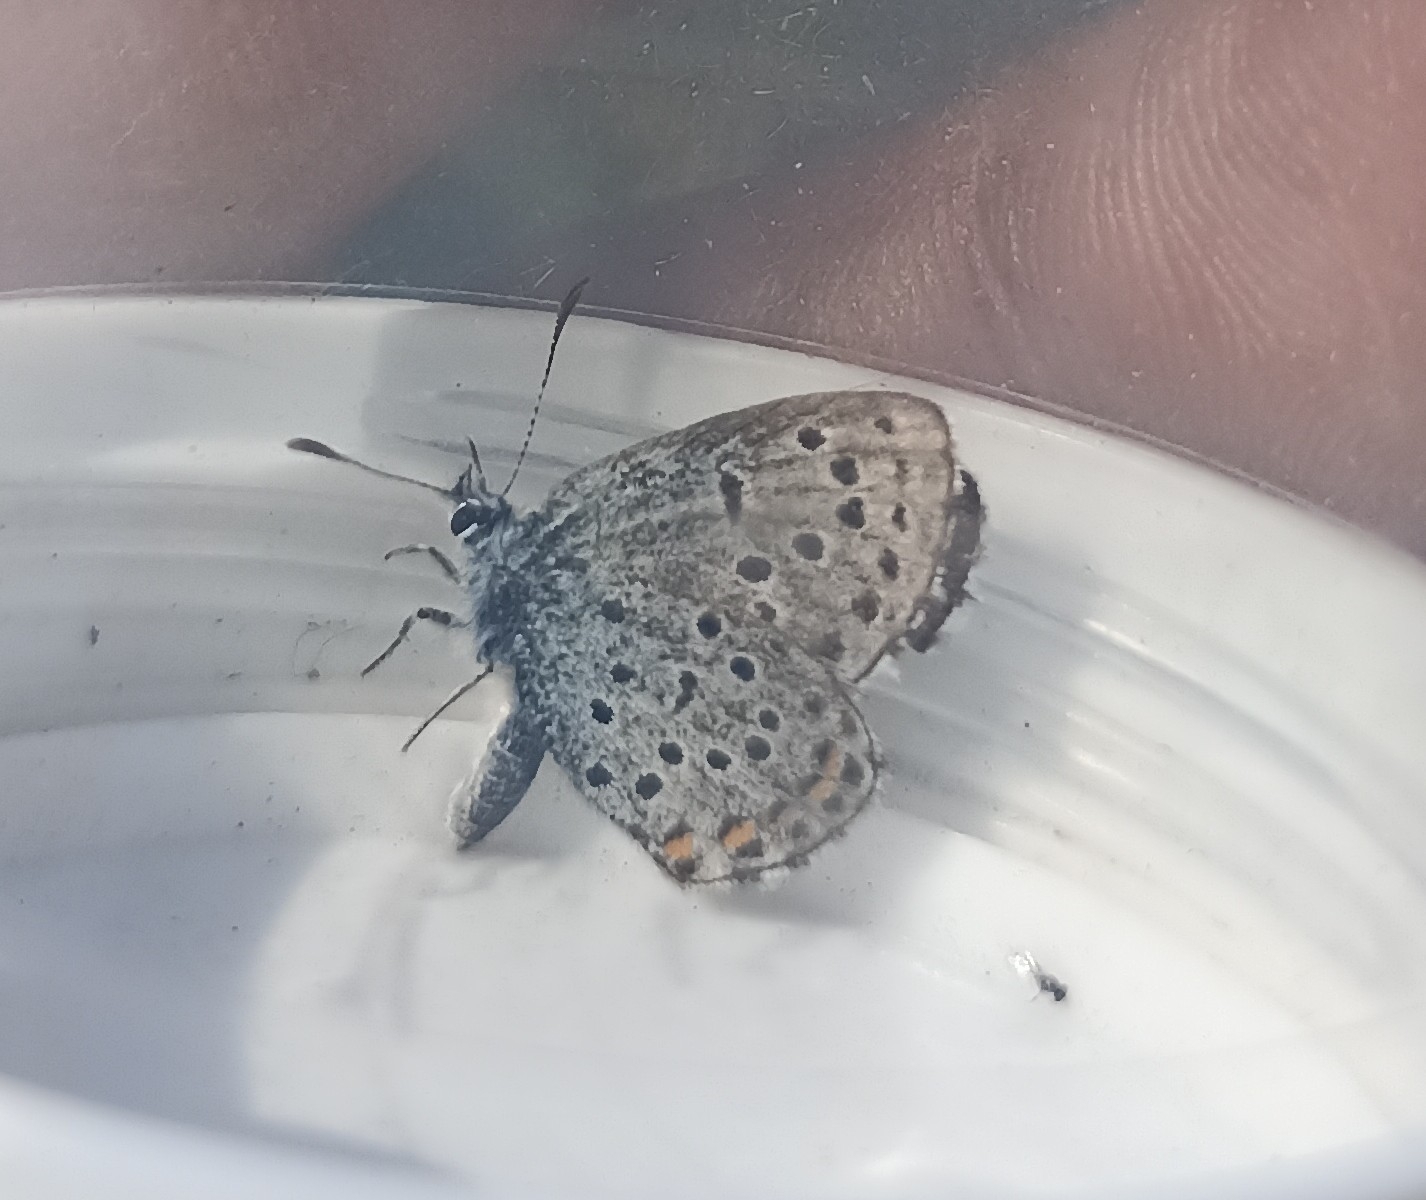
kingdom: Animalia
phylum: Arthropoda
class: Insecta
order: Lepidoptera
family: Lycaenidae
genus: Pseudophilotes
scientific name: Pseudophilotes baton
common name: Baton blue
